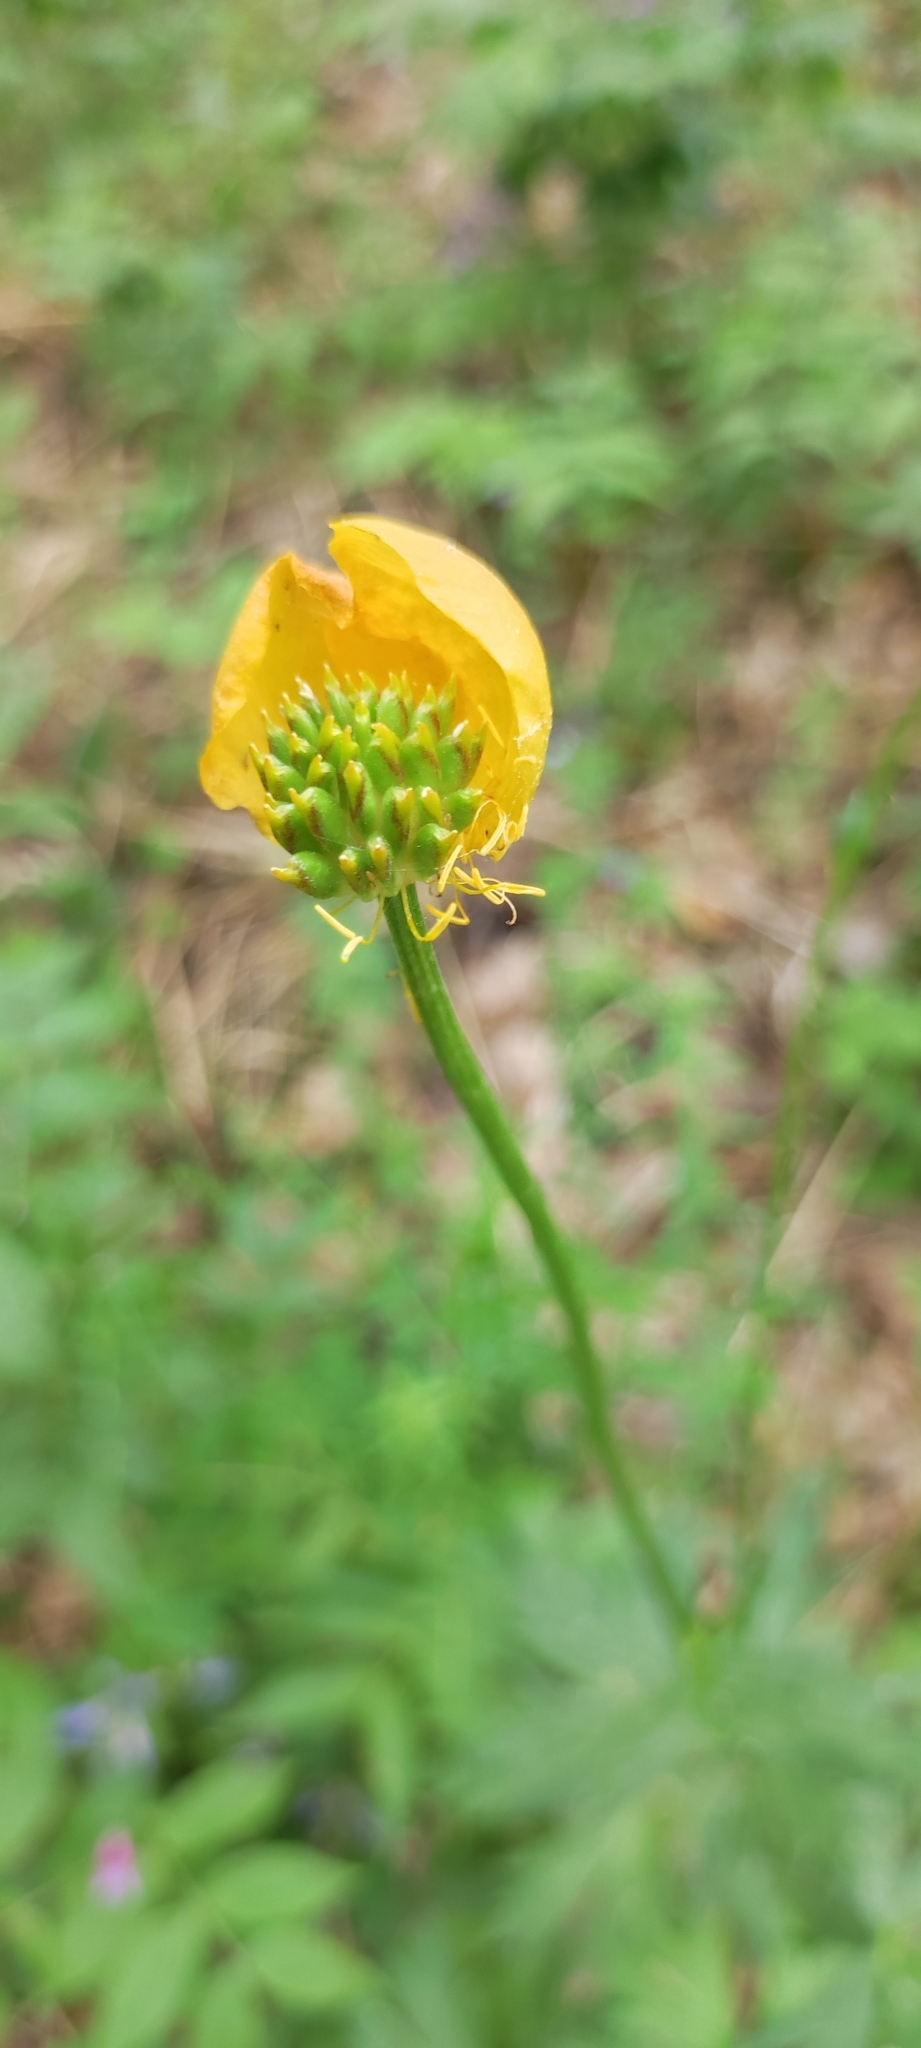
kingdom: Plantae
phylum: Tracheophyta
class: Magnoliopsida
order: Ranunculales
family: Ranunculaceae
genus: Trollius
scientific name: Trollius europaeus
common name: European globeflower
